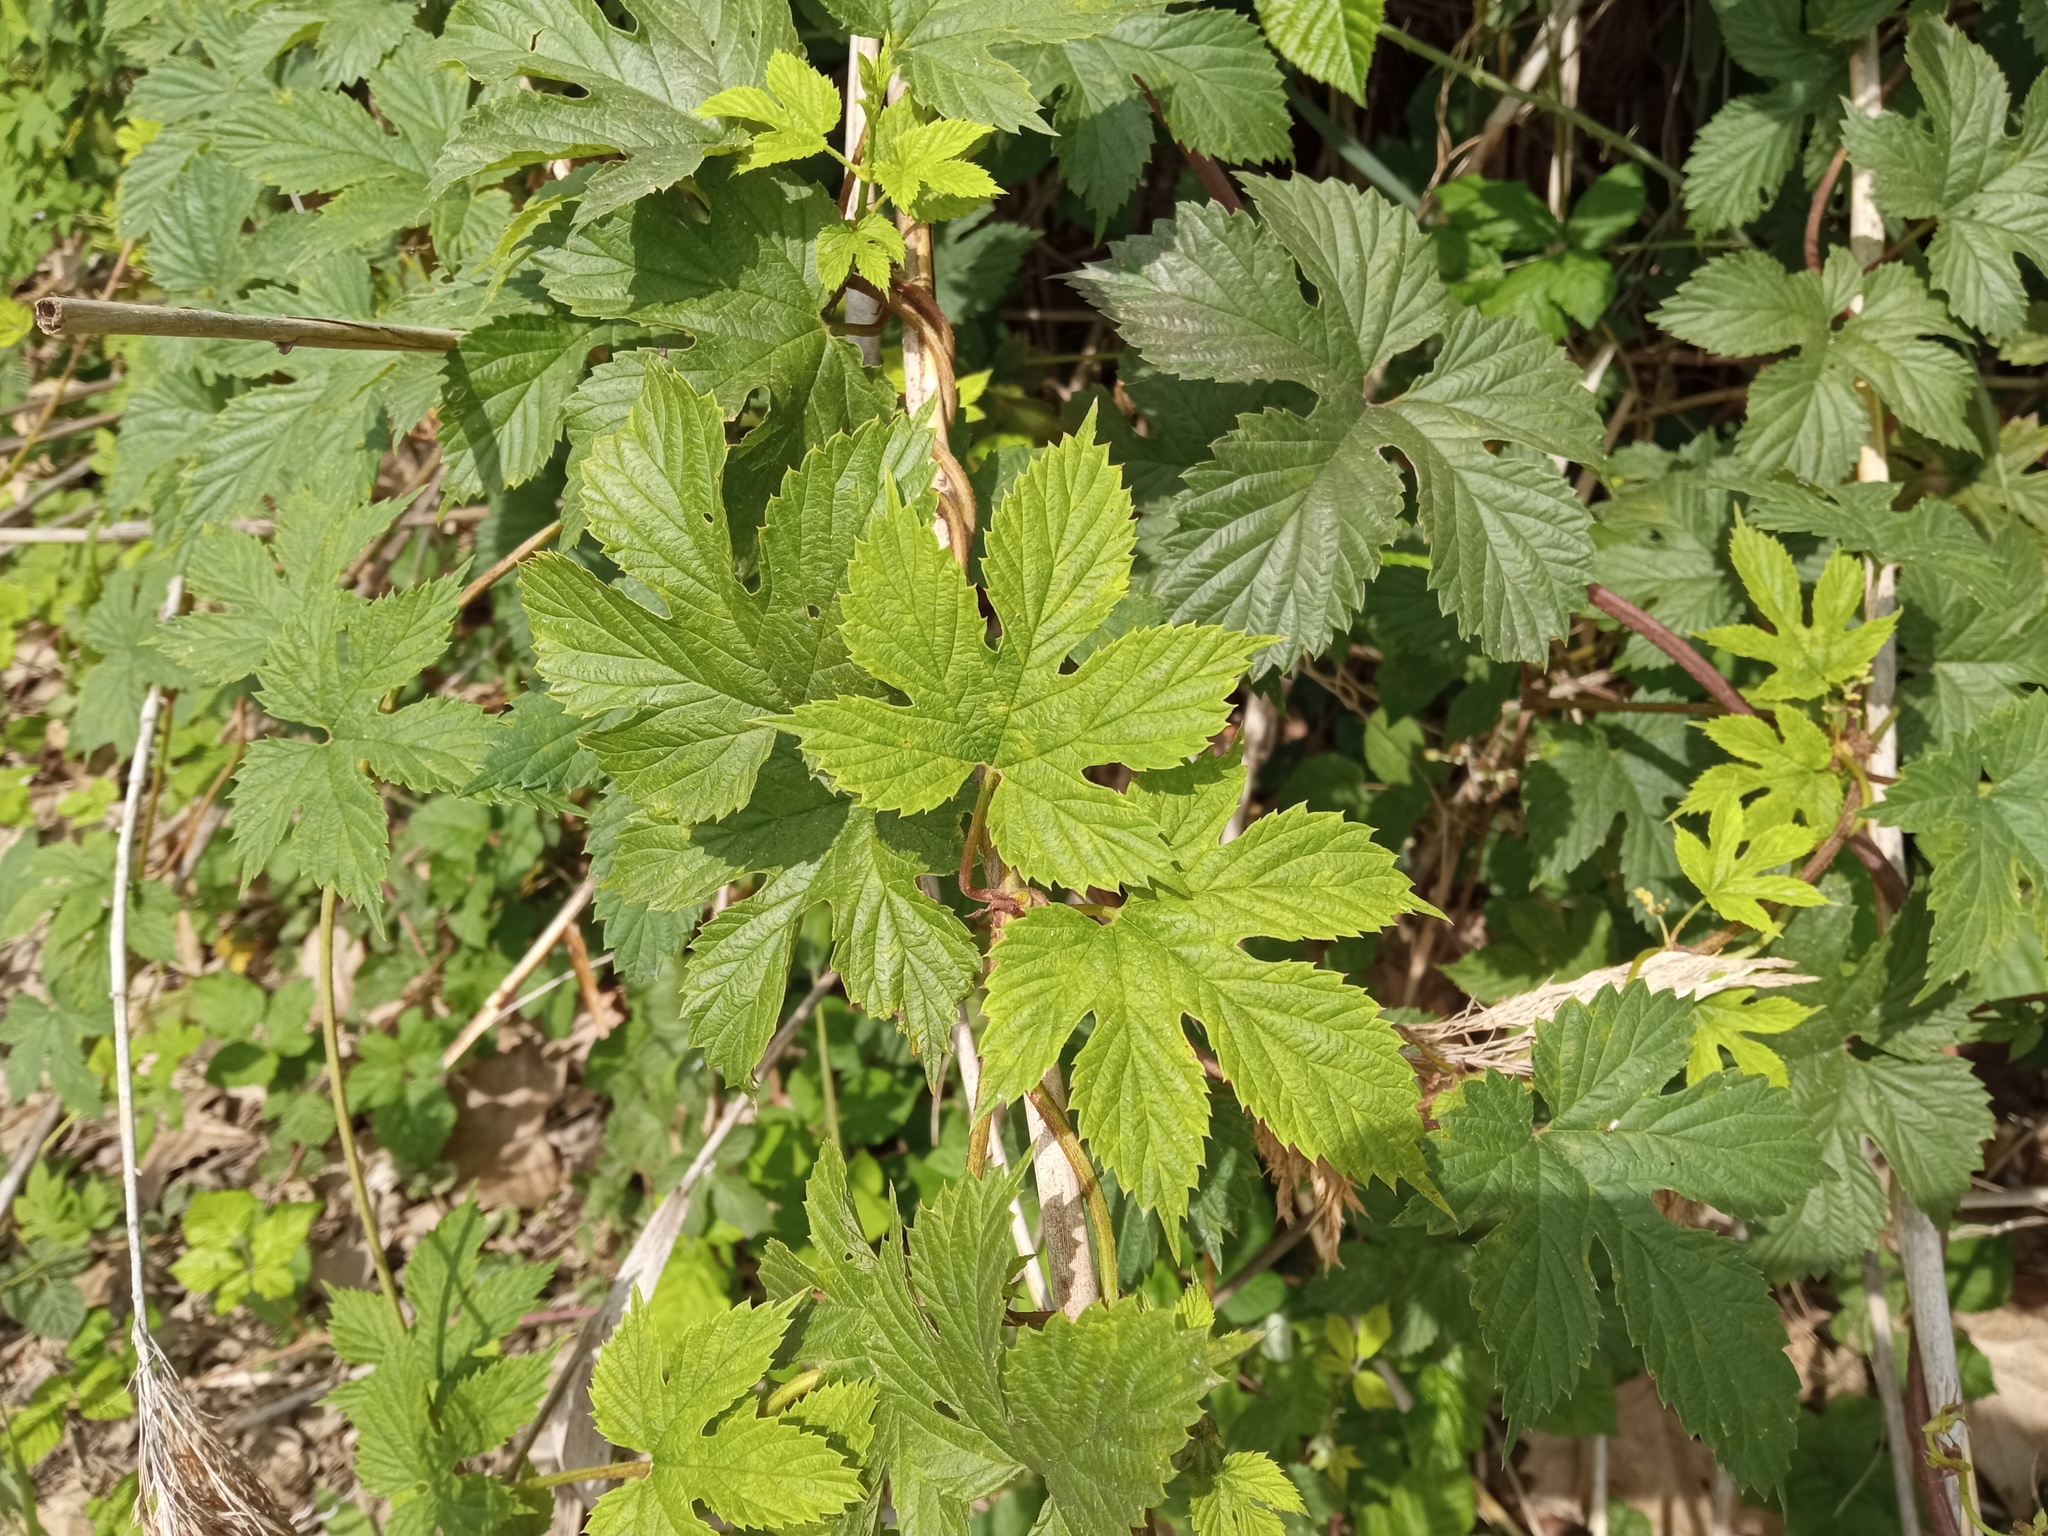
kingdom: Plantae
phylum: Tracheophyta
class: Magnoliopsida
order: Rosales
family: Cannabaceae
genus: Humulus
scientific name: Humulus lupulus
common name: Hop
